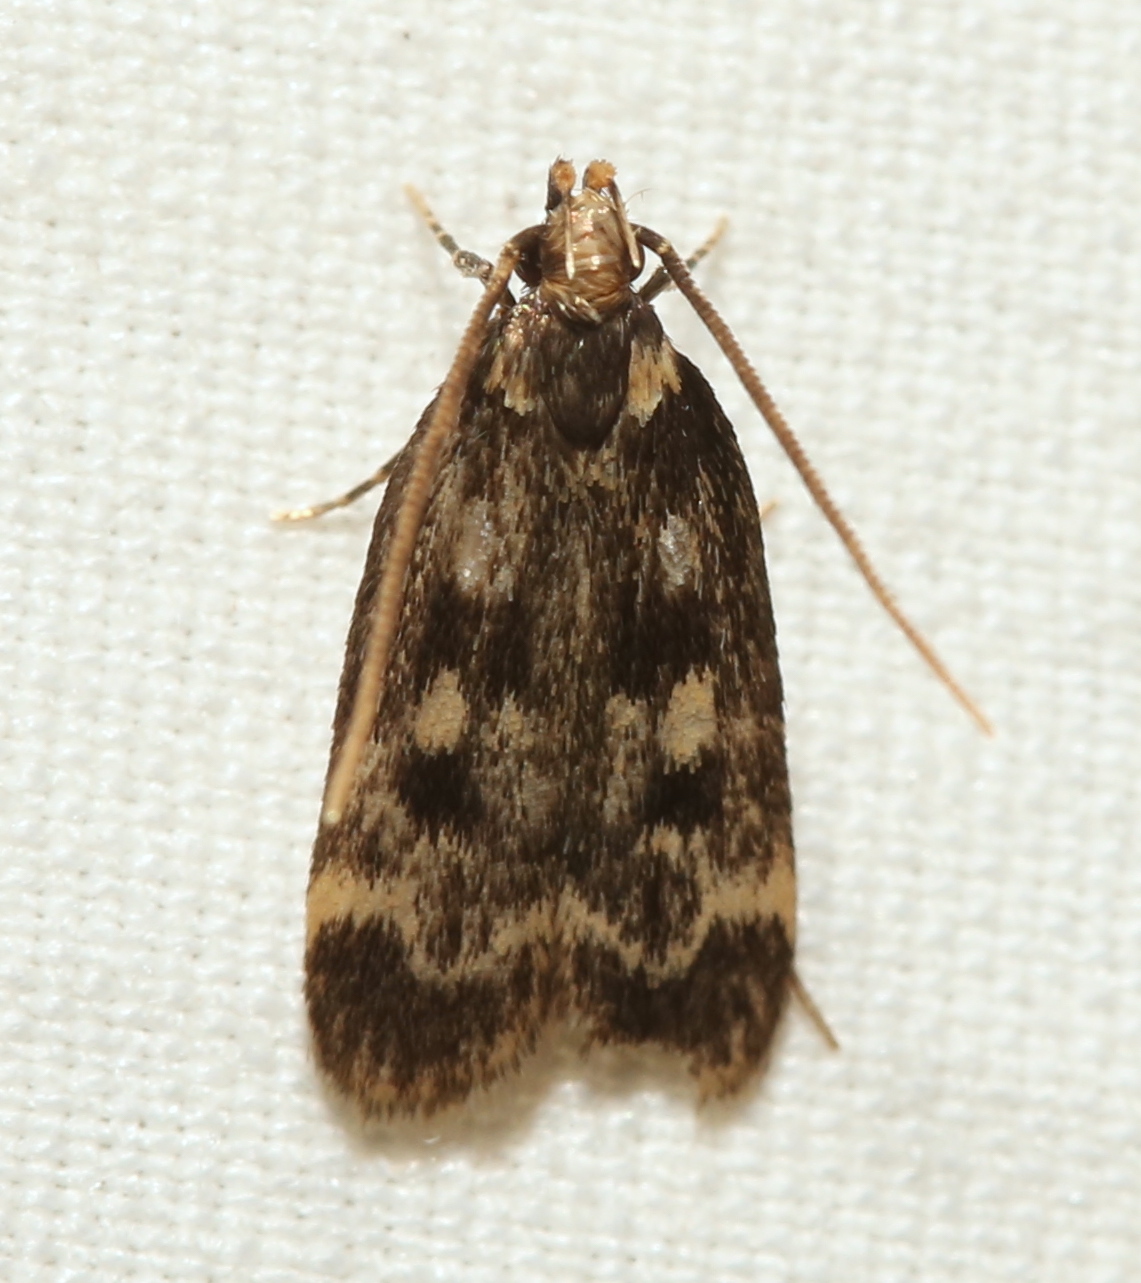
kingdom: Animalia
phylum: Arthropoda
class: Insecta
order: Lepidoptera
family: Lecithoceridae
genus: Martyringa
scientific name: Martyringa latipennis
